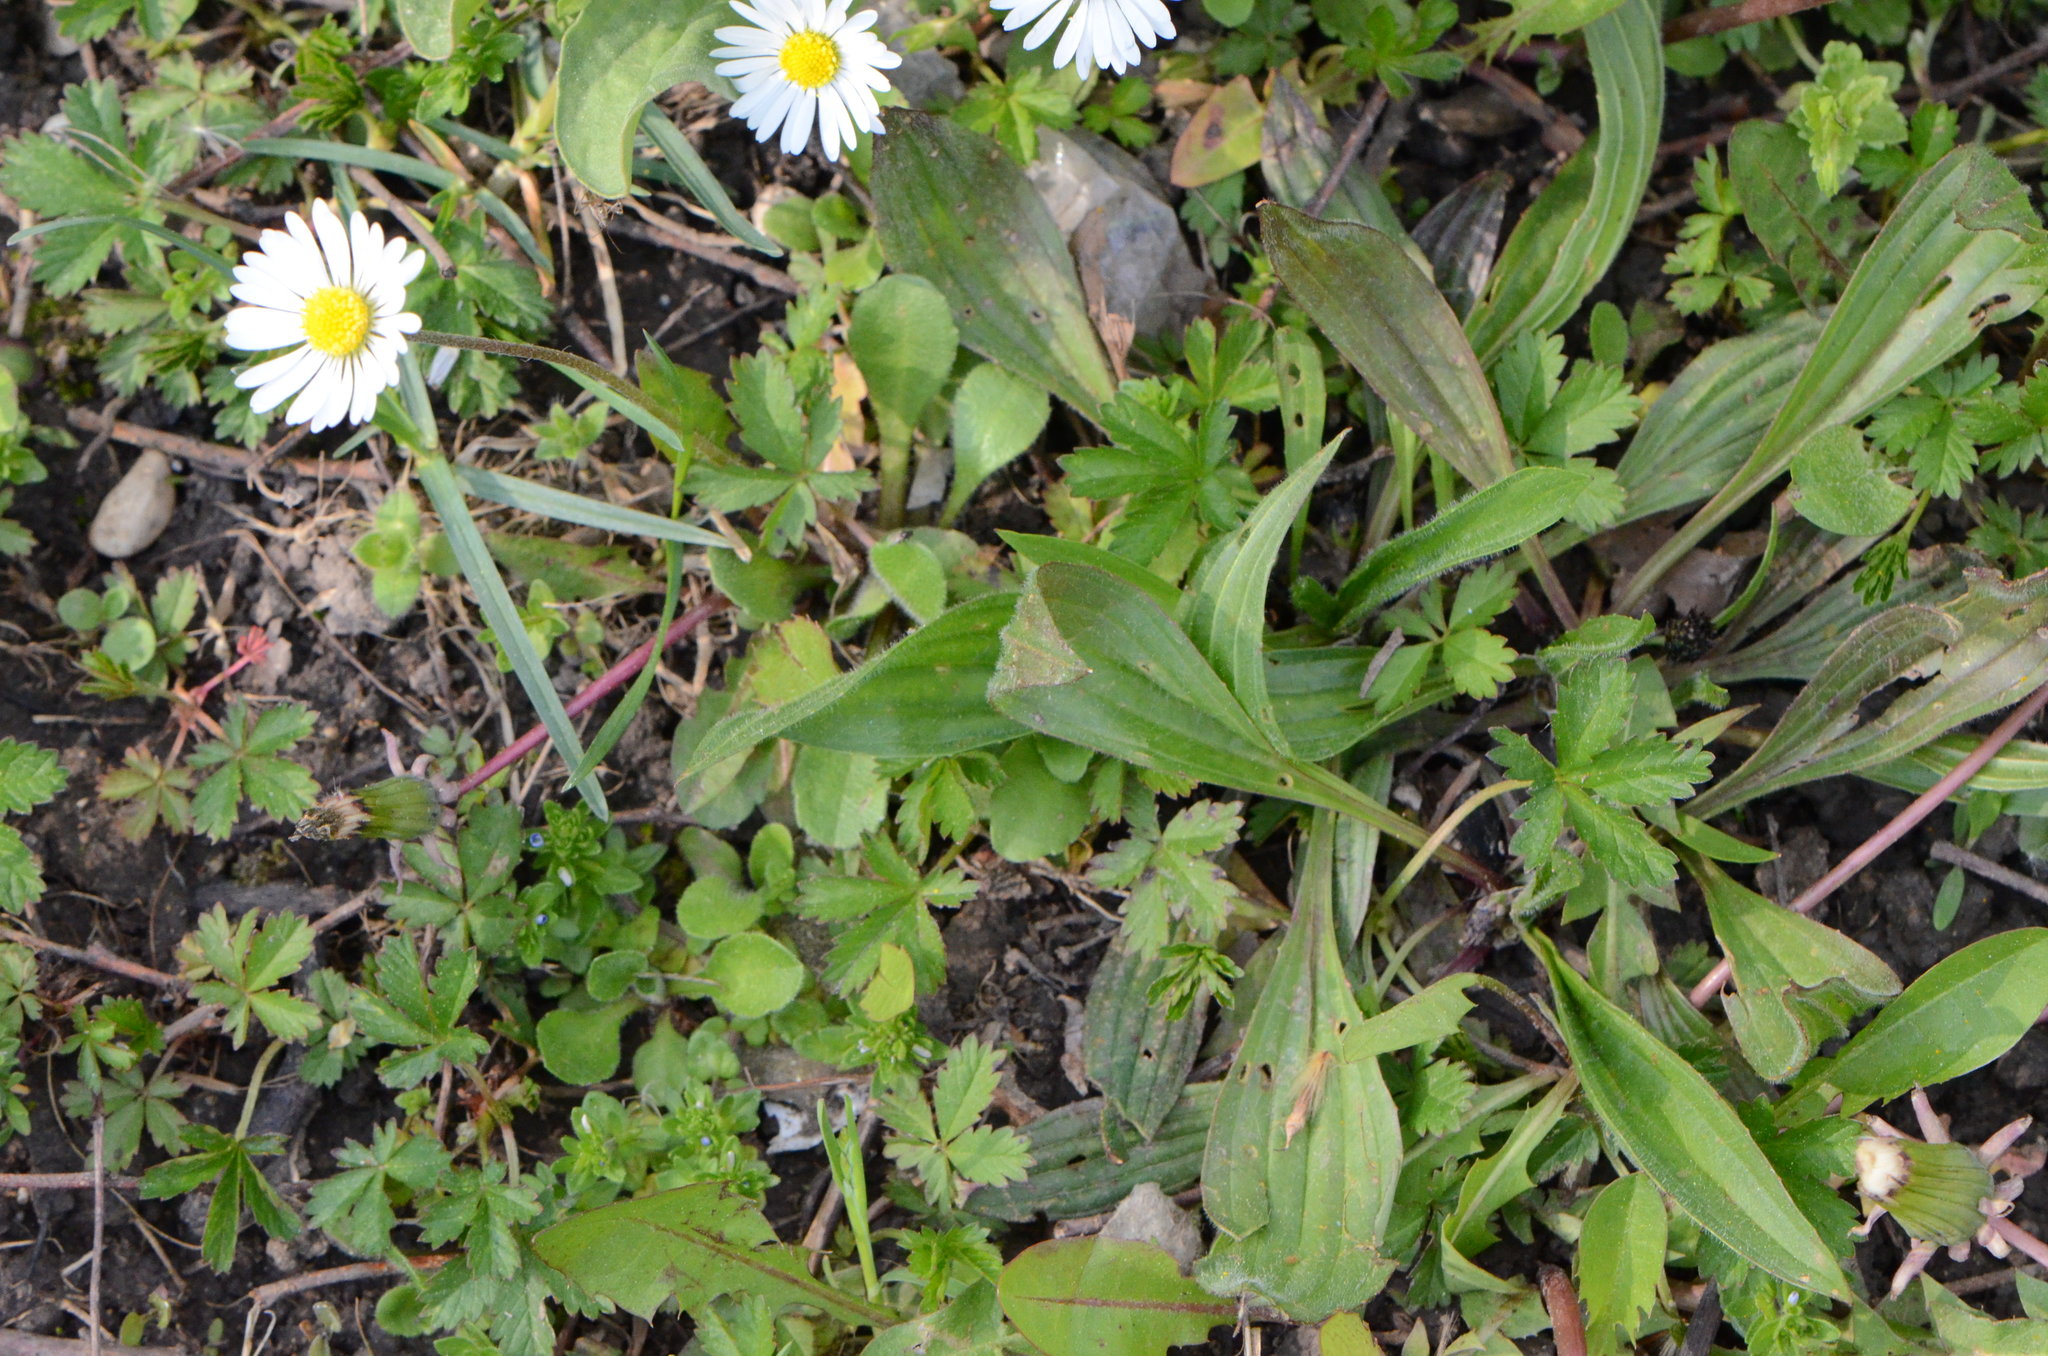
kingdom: Plantae
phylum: Tracheophyta
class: Magnoliopsida
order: Lamiales
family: Plantaginaceae
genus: Plantago
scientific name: Plantago lanceolata
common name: Ribwort plantain
